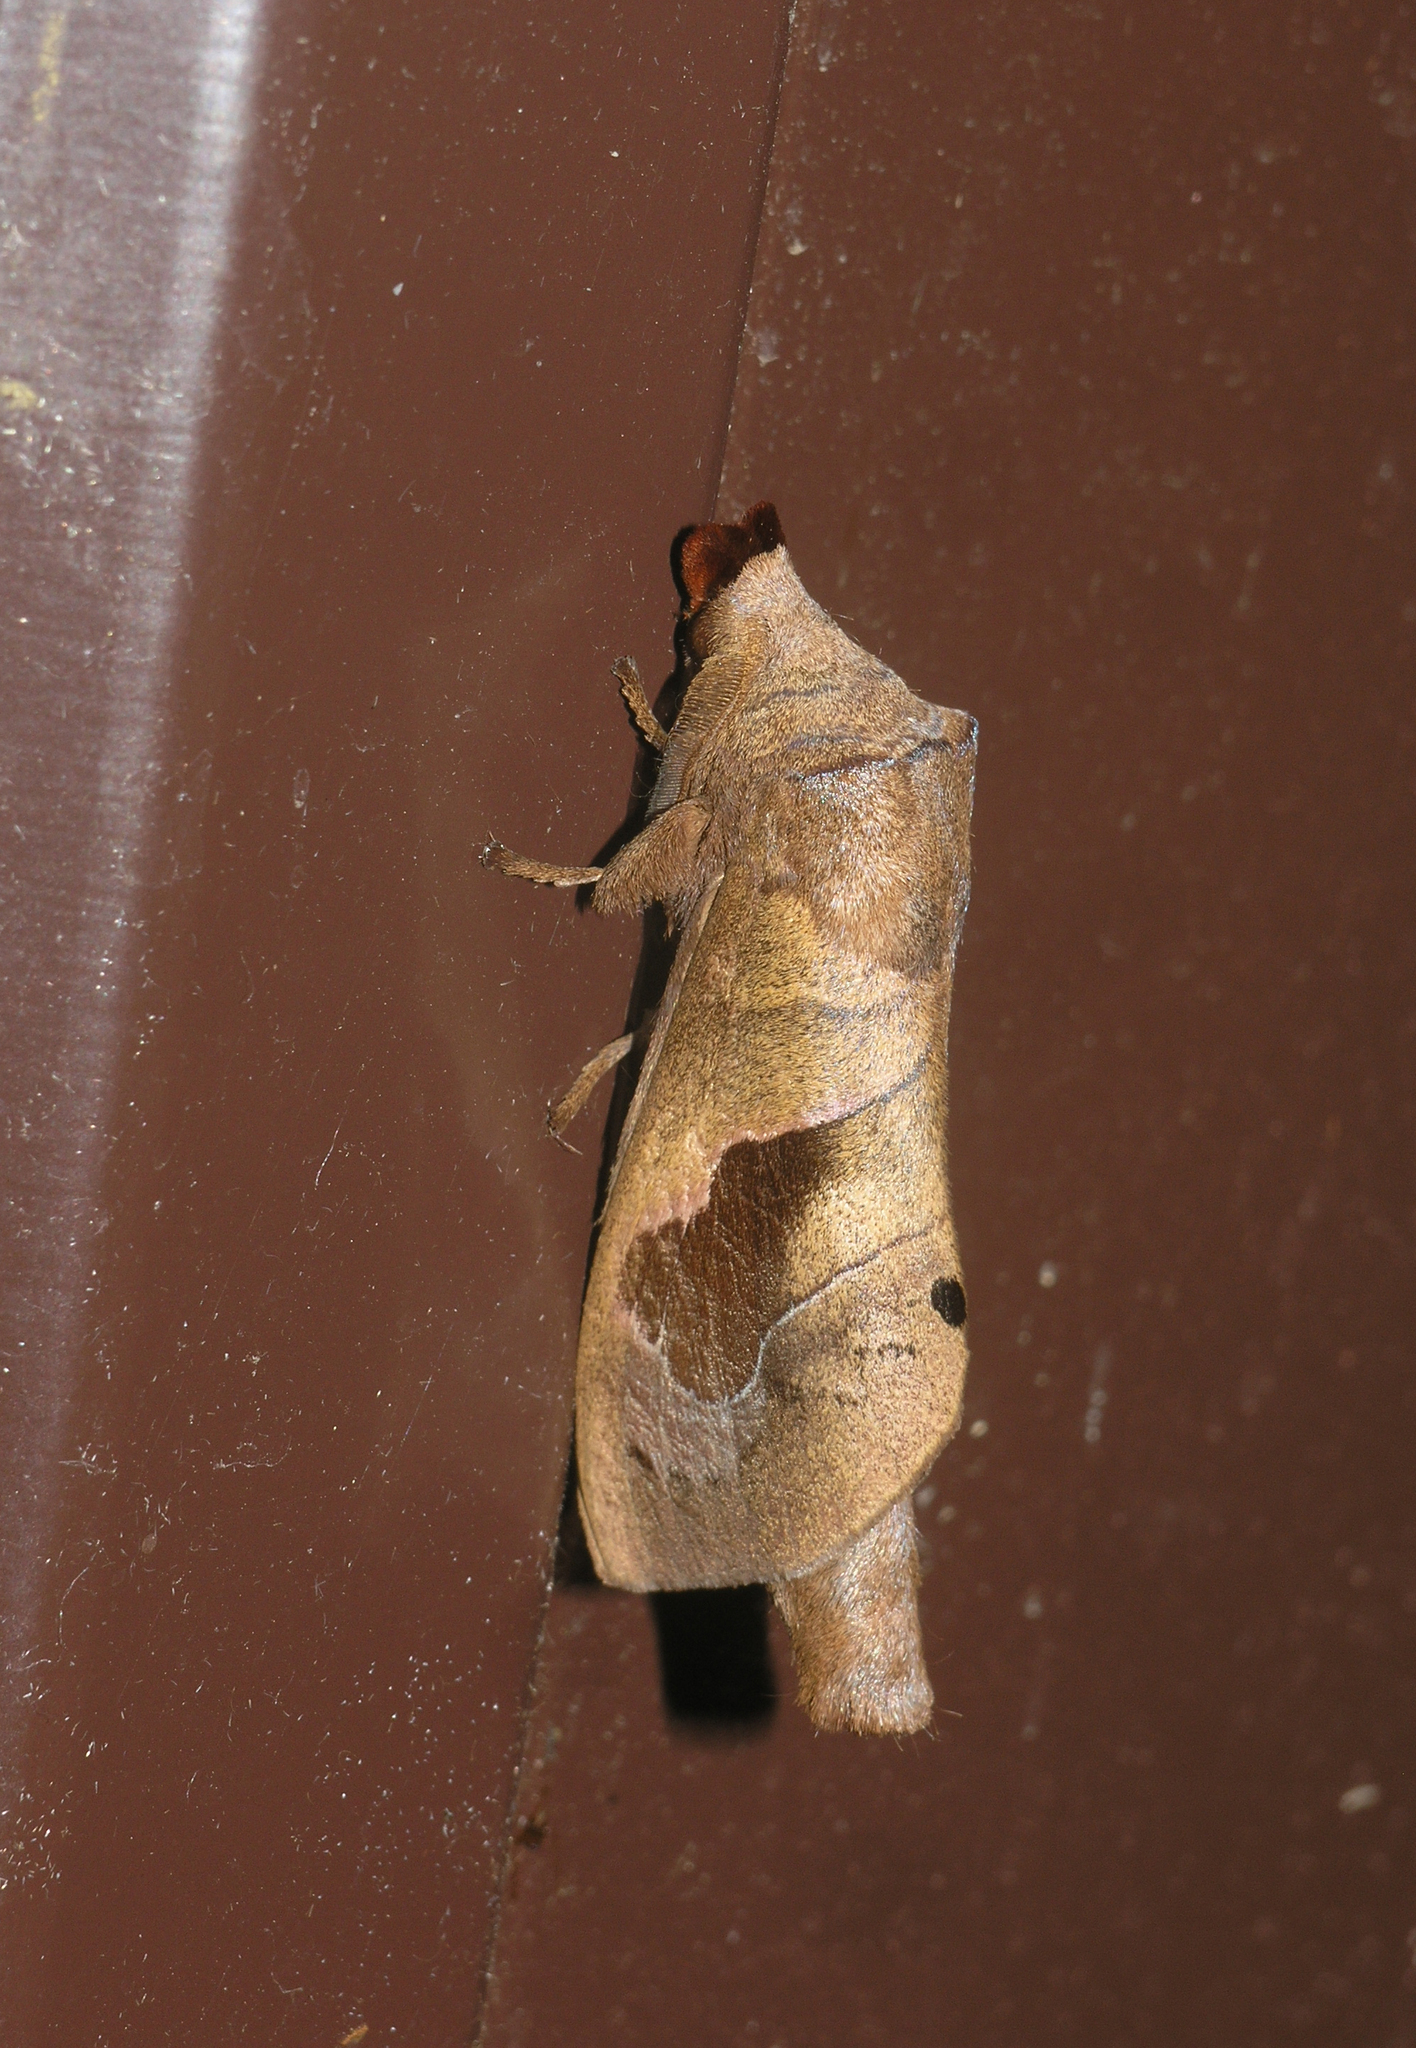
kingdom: Animalia
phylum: Arthropoda
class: Insecta
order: Lepidoptera
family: Lasiocampidae
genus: Paralebeda
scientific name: Paralebeda femorata
